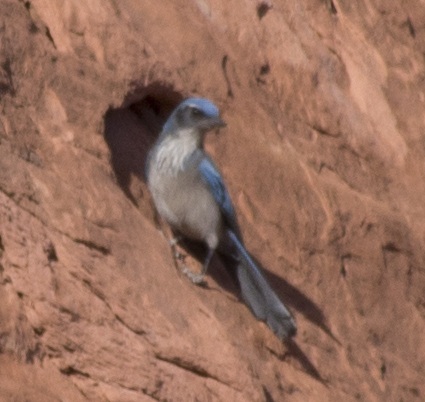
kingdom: Animalia
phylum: Chordata
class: Aves
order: Passeriformes
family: Corvidae
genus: Aphelocoma
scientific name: Aphelocoma woodhouseii
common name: Woodhouse's scrub-jay
